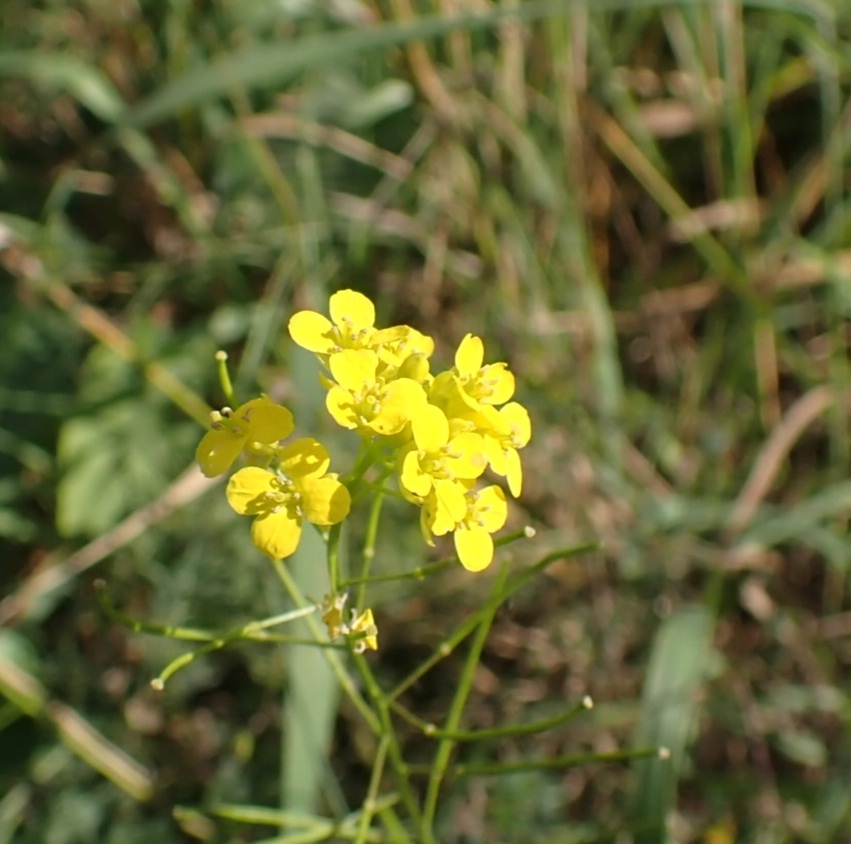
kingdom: Plantae
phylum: Tracheophyta
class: Magnoliopsida
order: Brassicales
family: Brassicaceae
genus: Sisymbrium
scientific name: Sisymbrium loeselii
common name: False london-rocket
